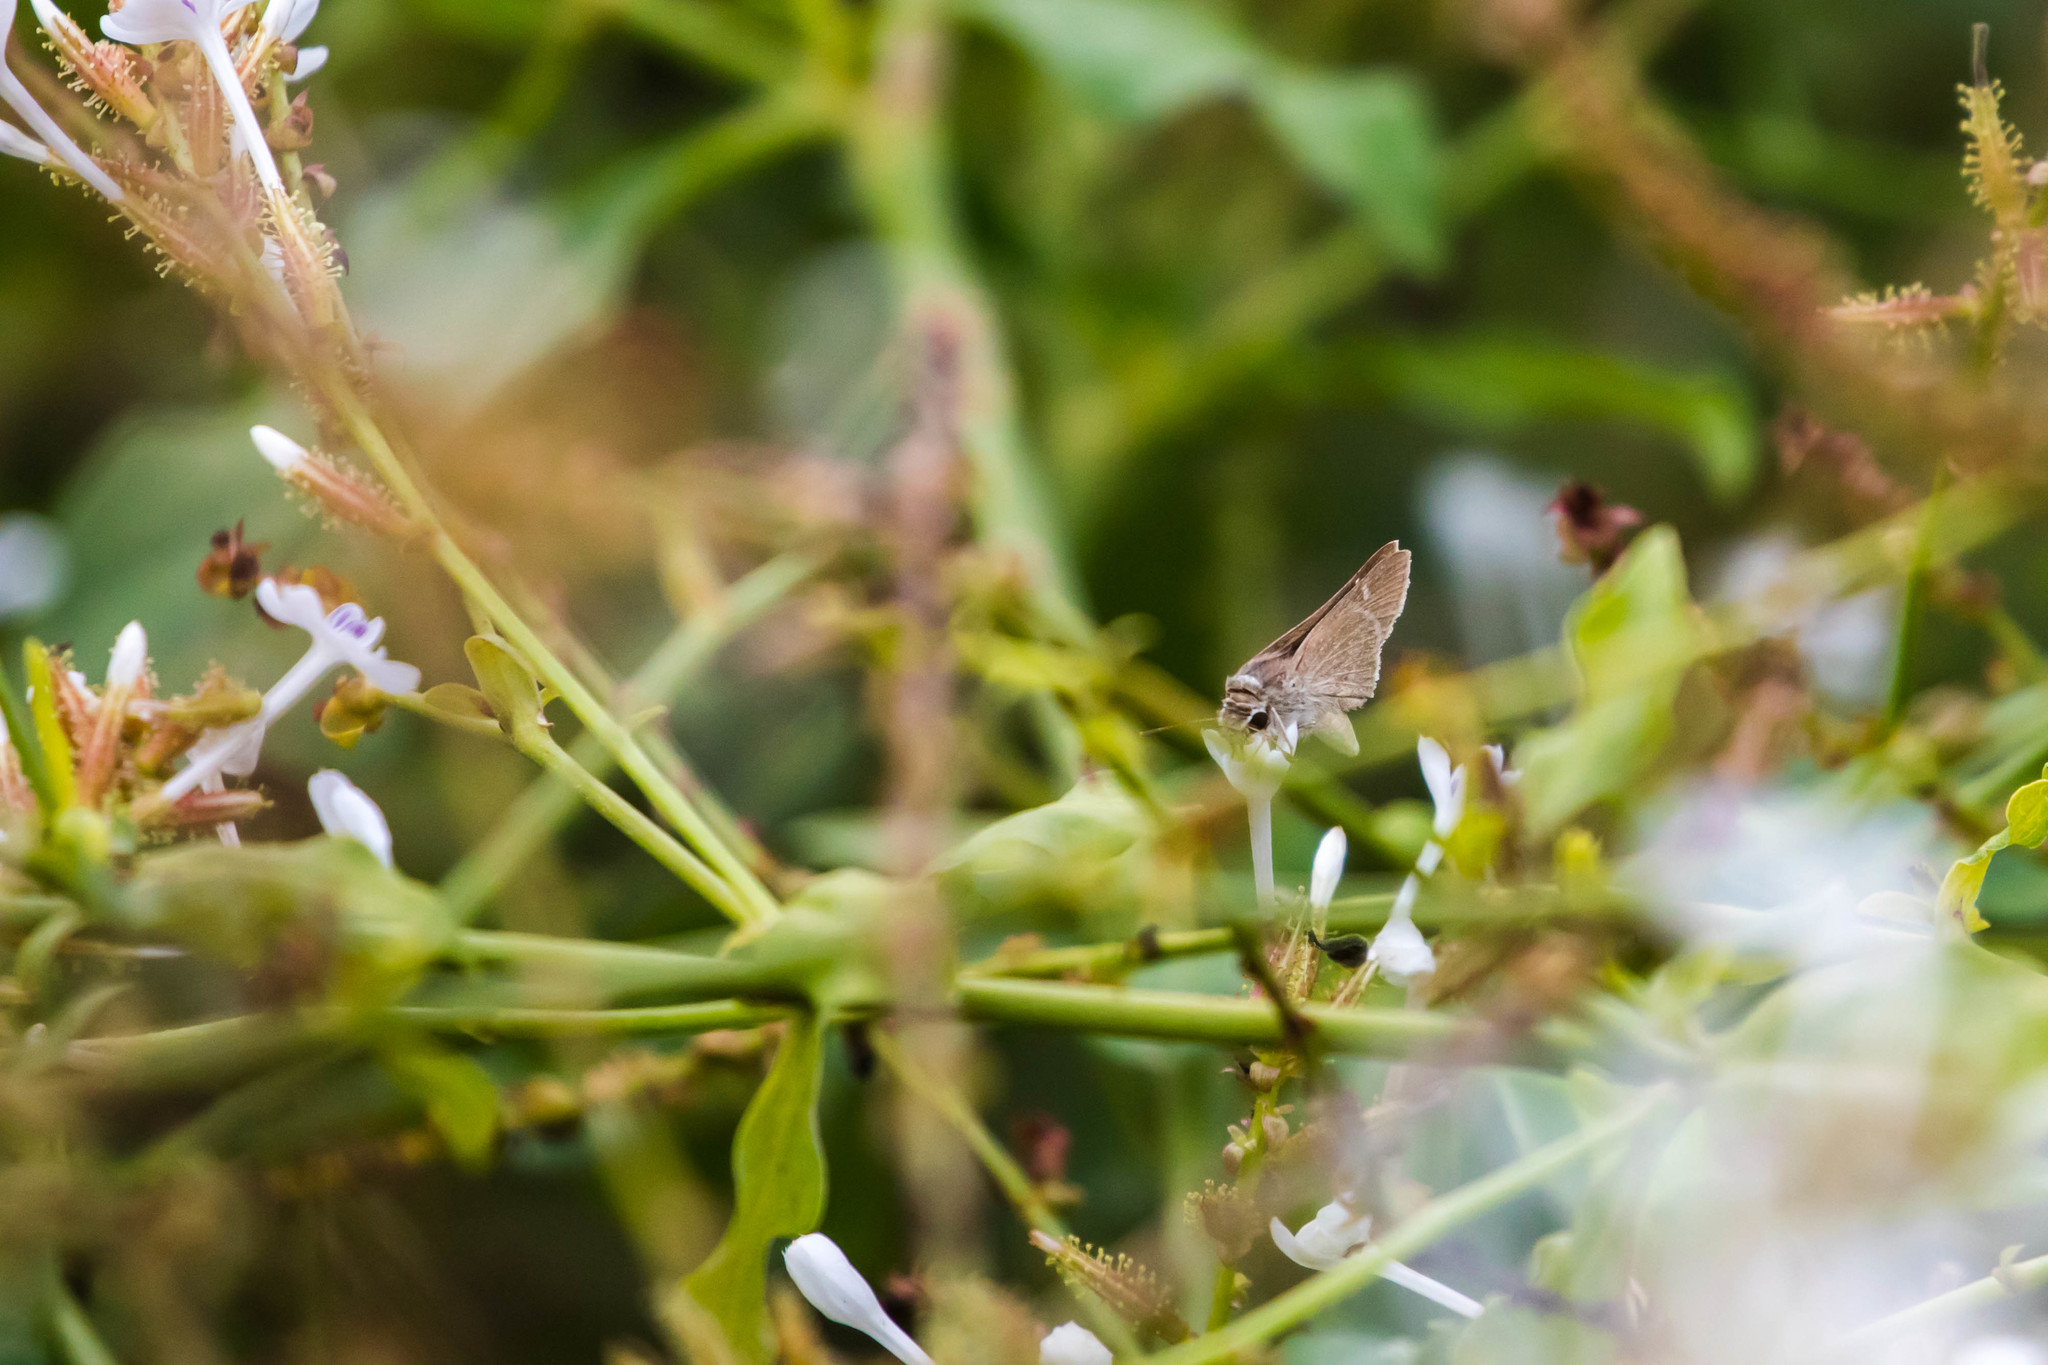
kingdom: Animalia
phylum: Arthropoda
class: Insecta
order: Lepidoptera
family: Hesperiidae
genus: Lerodea
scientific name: Lerodea eufala
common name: Eufala skipper
